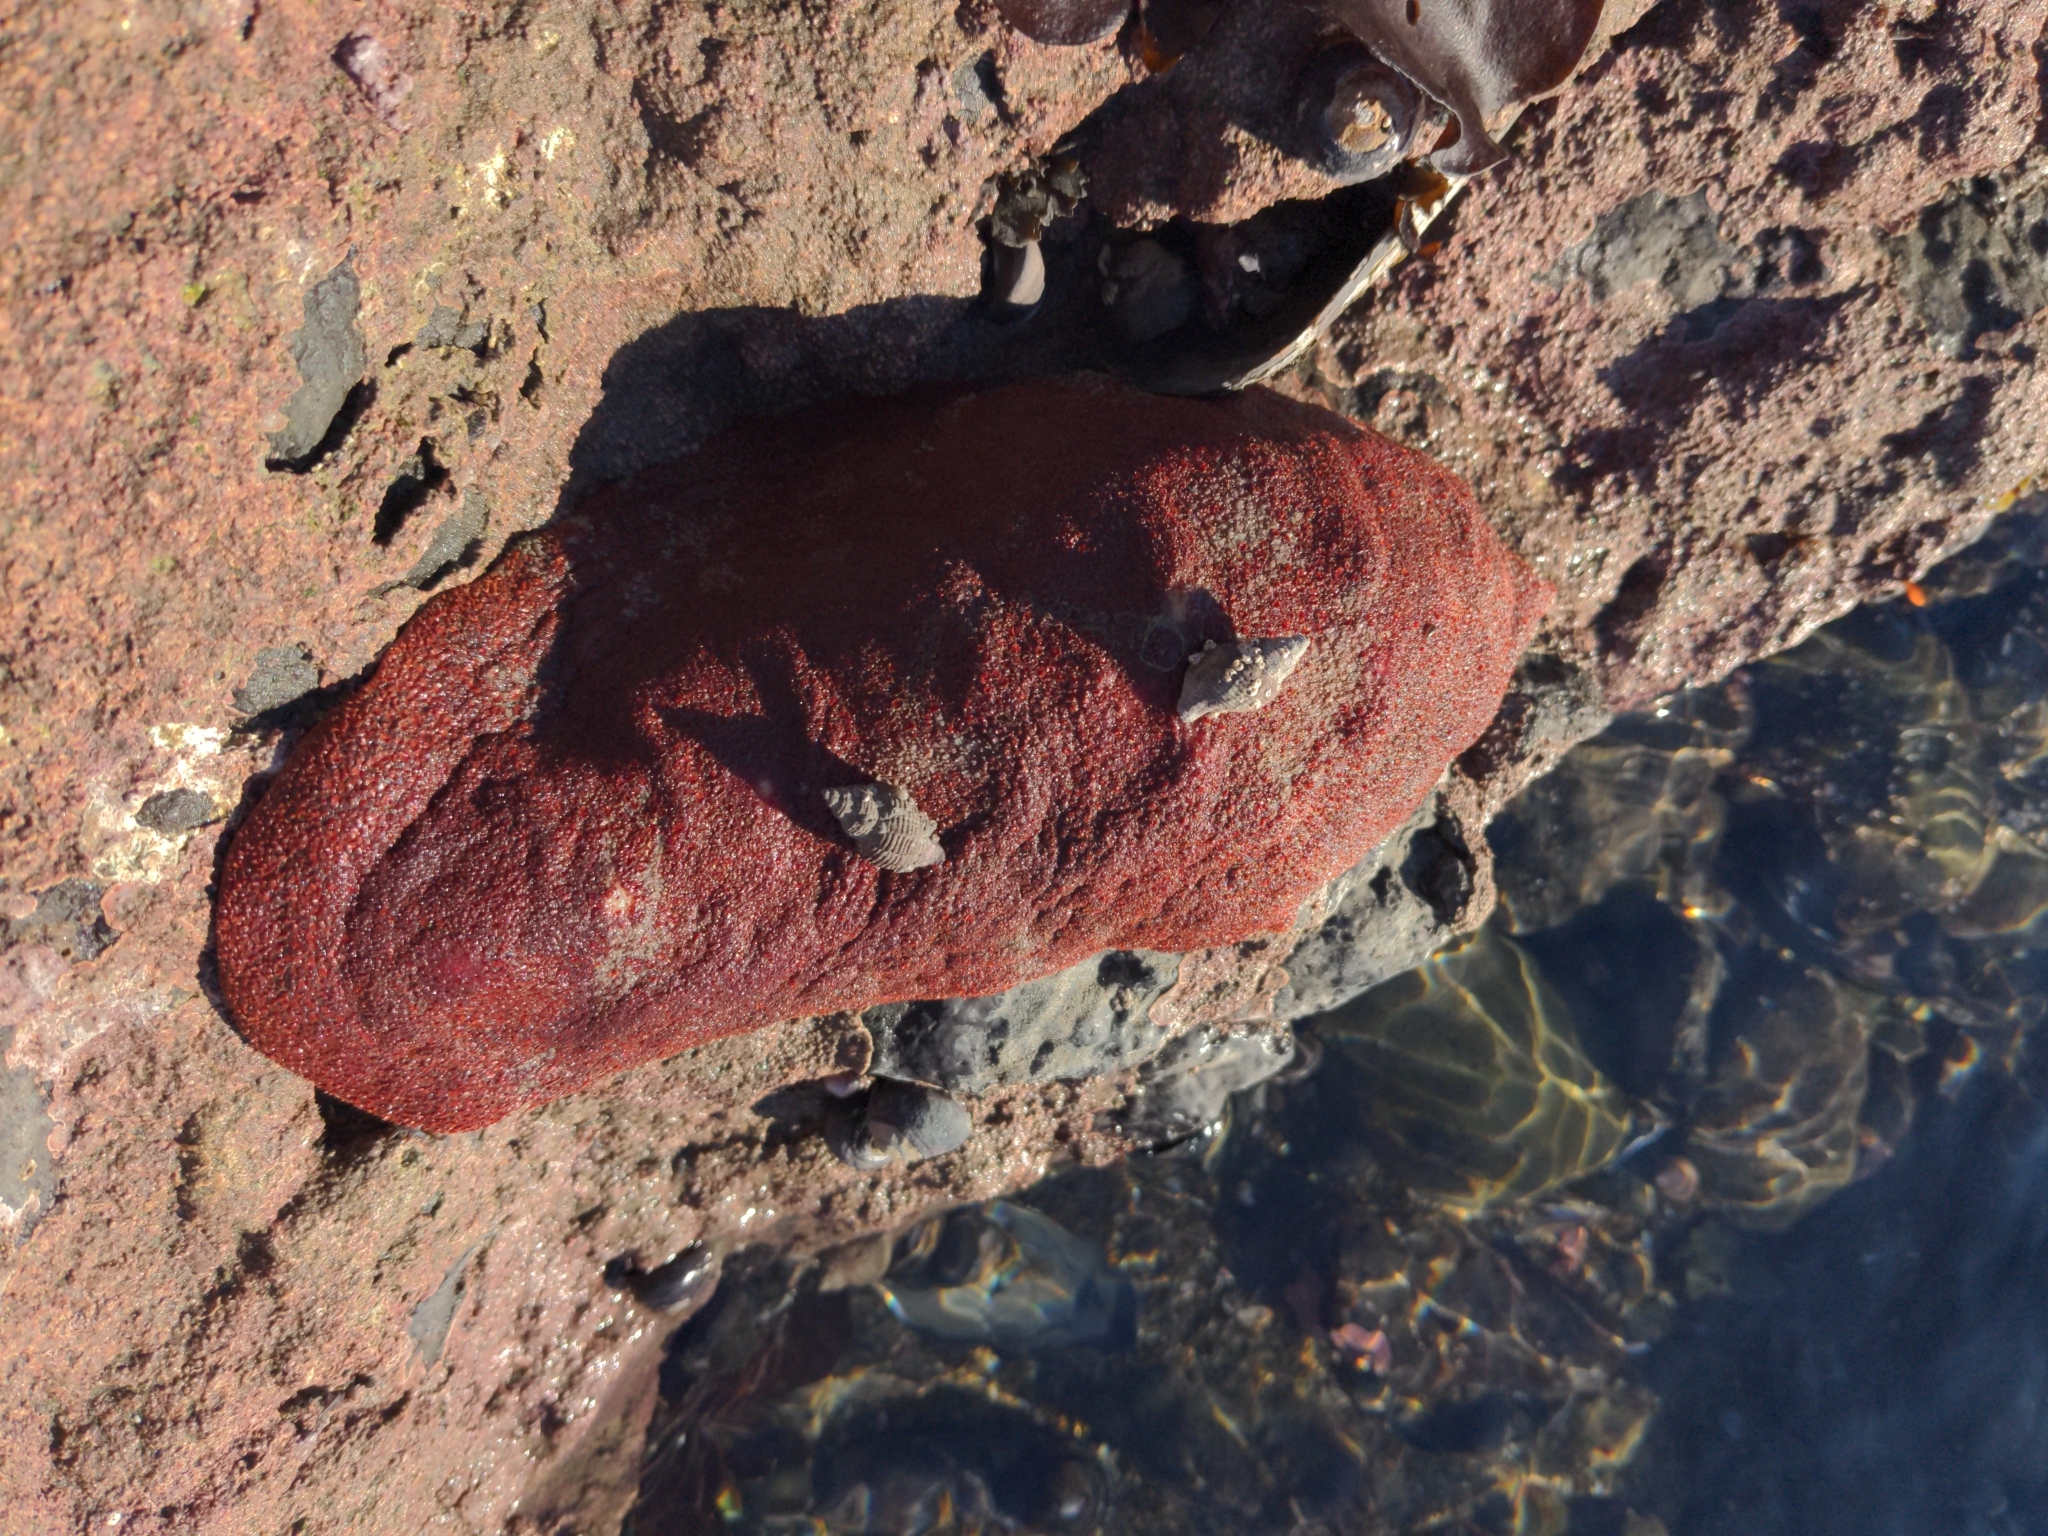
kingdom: Animalia
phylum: Mollusca
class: Polyplacophora
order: Chitonida
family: Acanthochitonidae
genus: Cryptochiton
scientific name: Cryptochiton stelleri
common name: Giant pacific chiton
